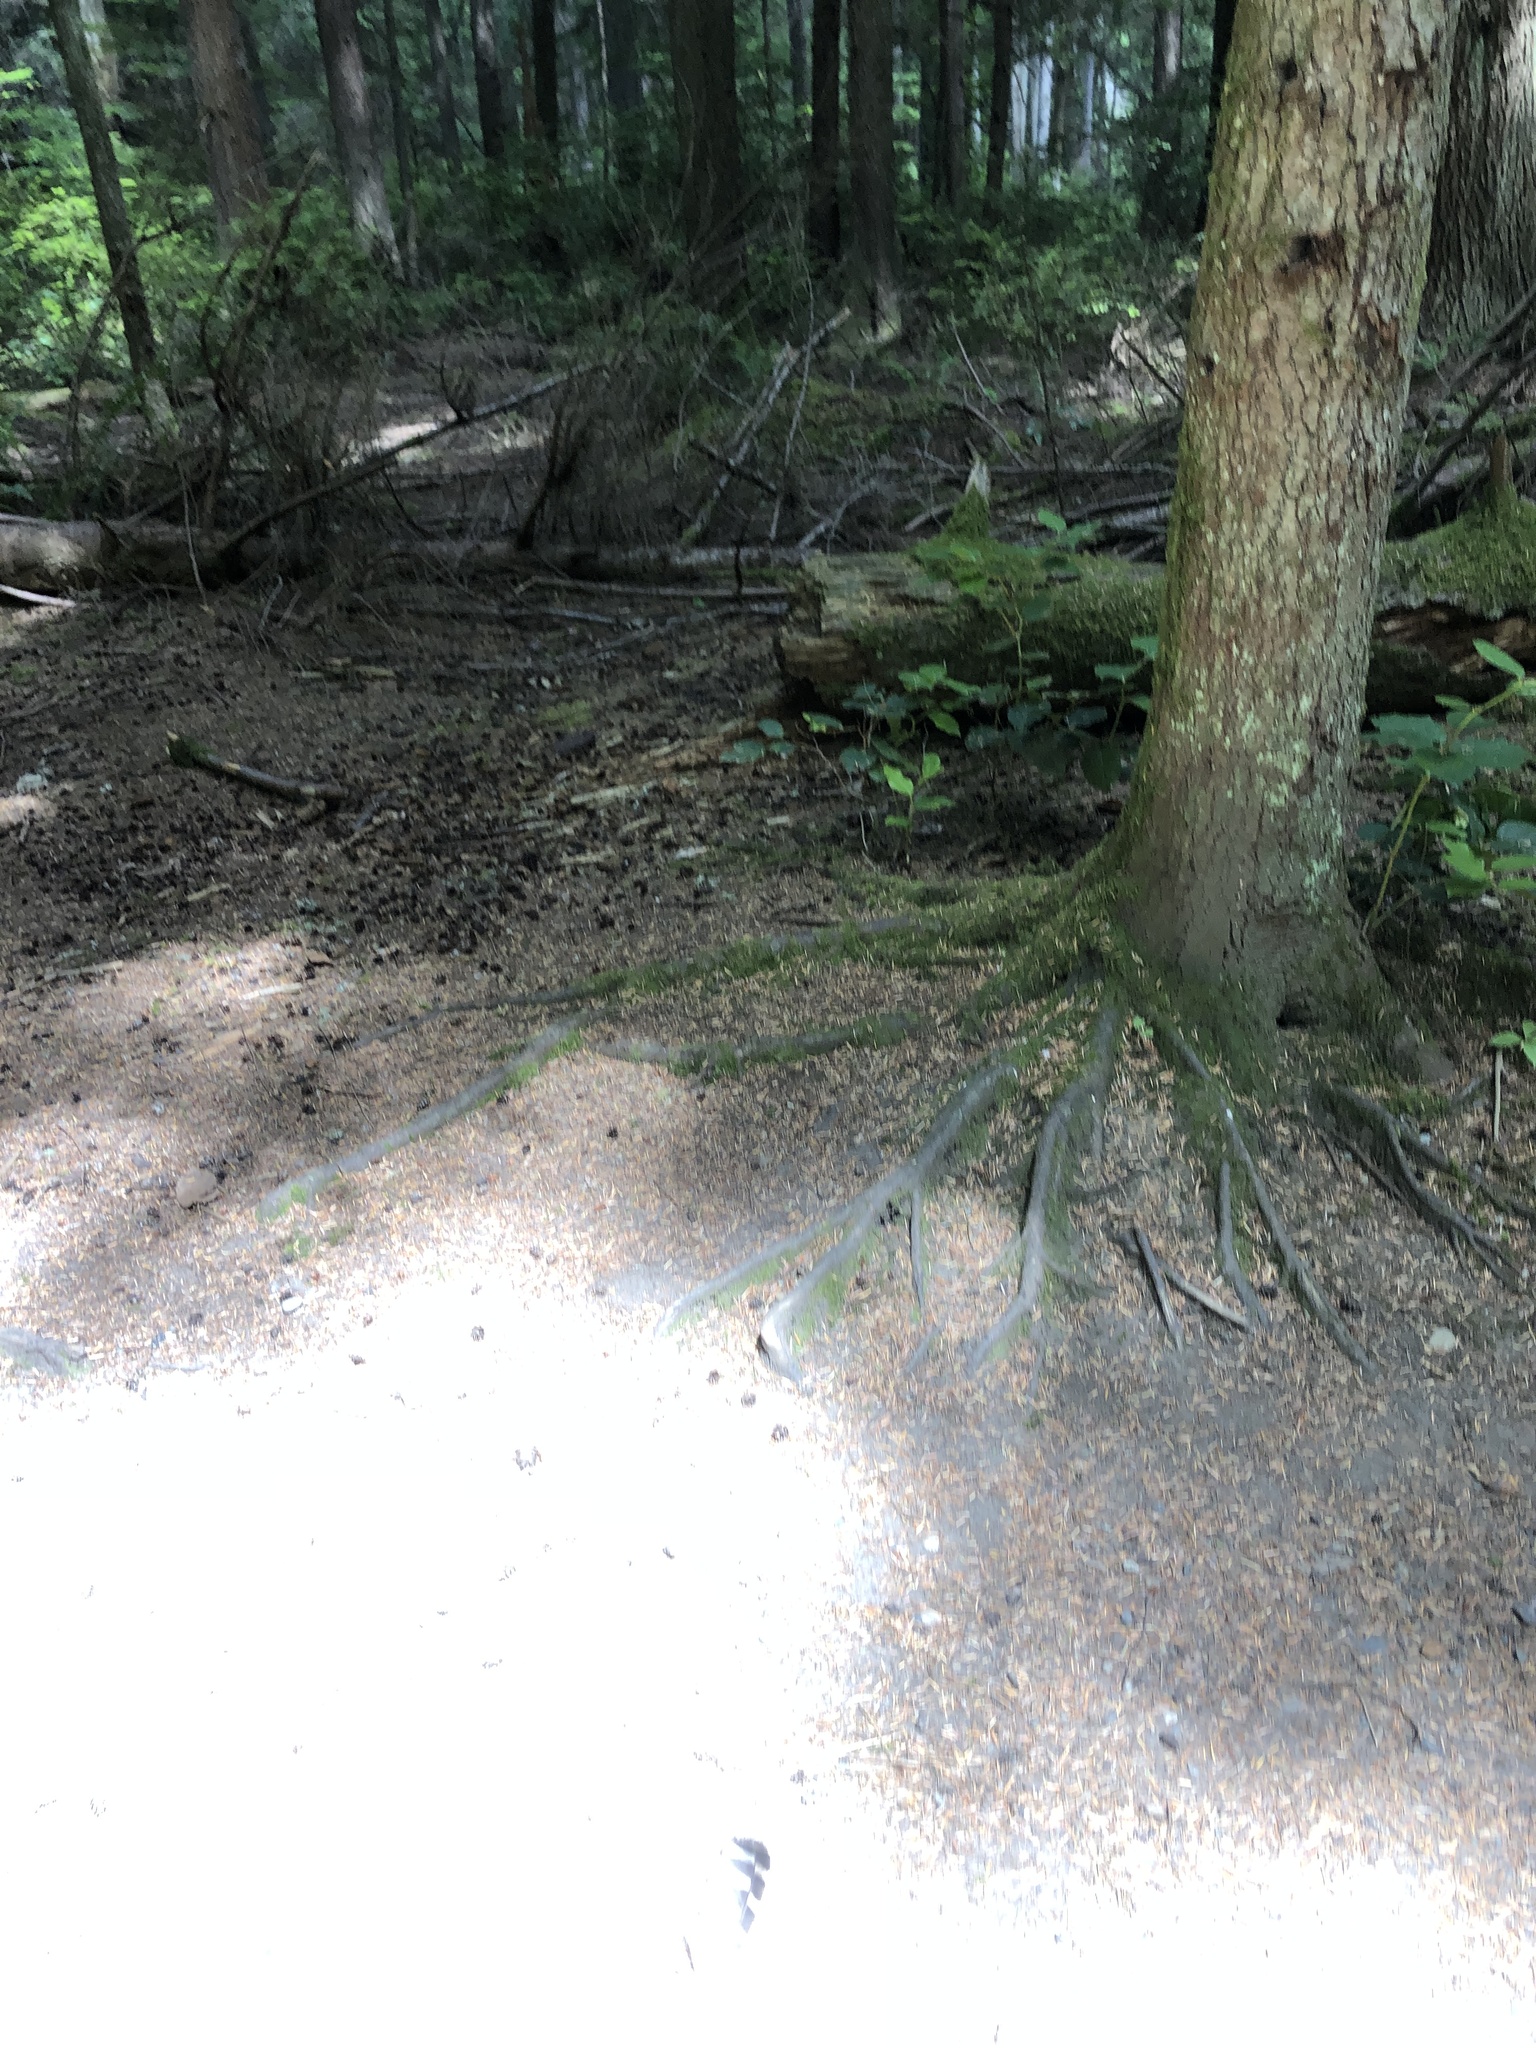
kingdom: Animalia
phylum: Chordata
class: Aves
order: Strigiformes
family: Strigidae
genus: Strix
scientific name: Strix varia
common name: Barred owl
